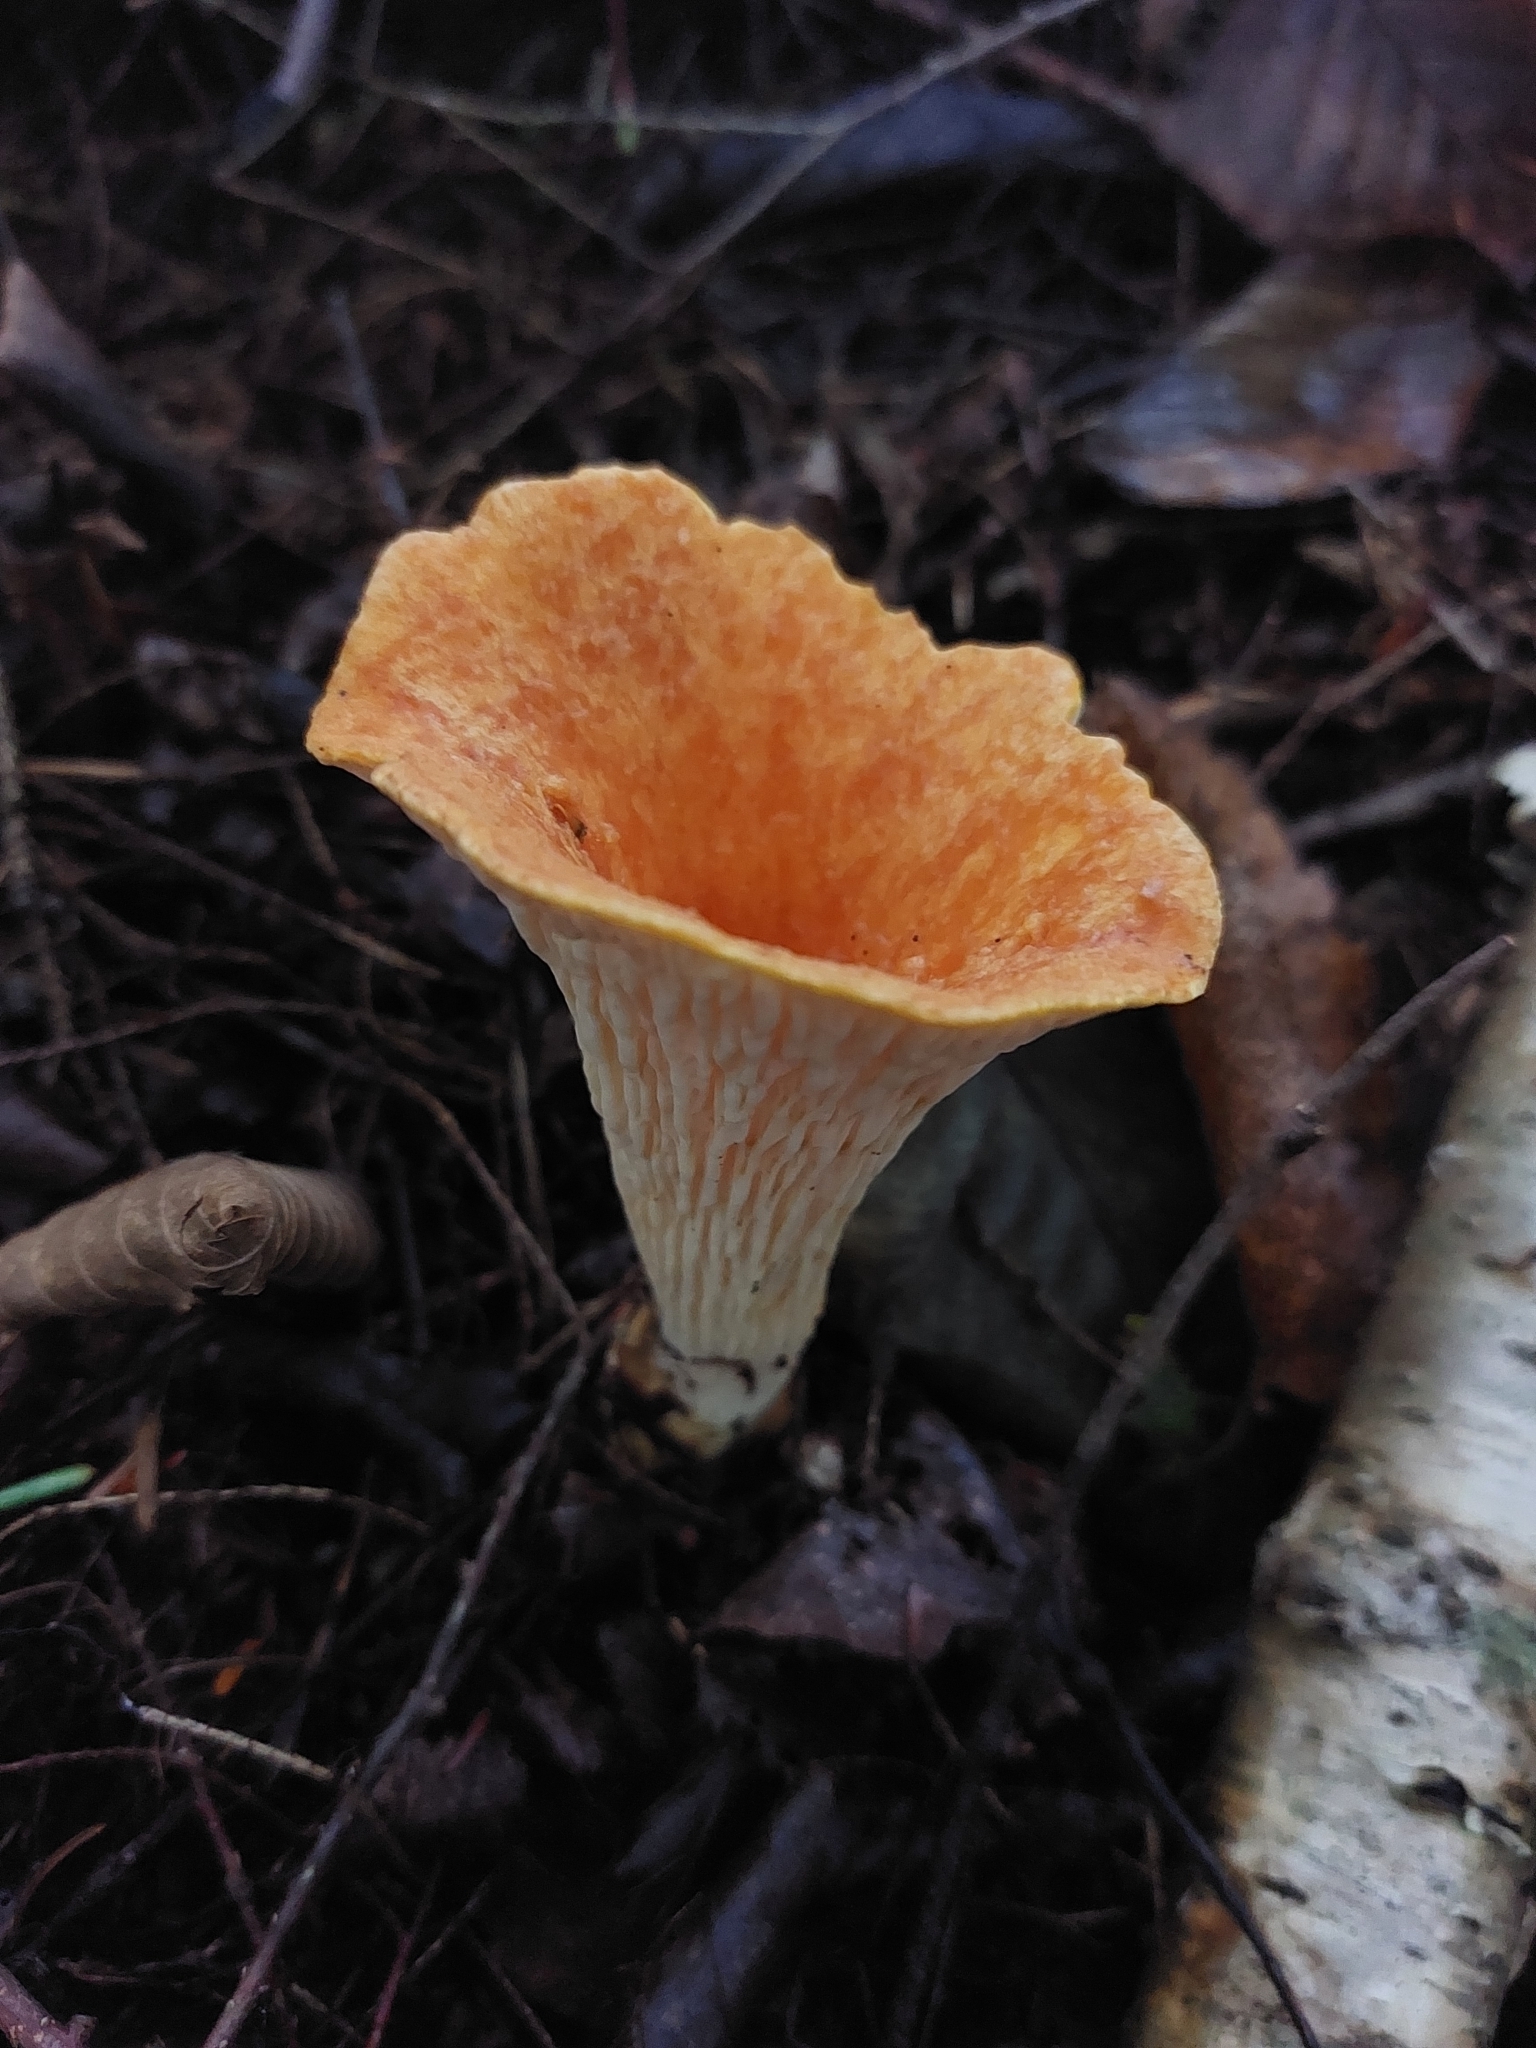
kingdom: Fungi
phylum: Basidiomycota
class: Agaricomycetes
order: Gomphales
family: Gomphaceae
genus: Turbinellus
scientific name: Turbinellus floccosus
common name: Scaly chanterelle
